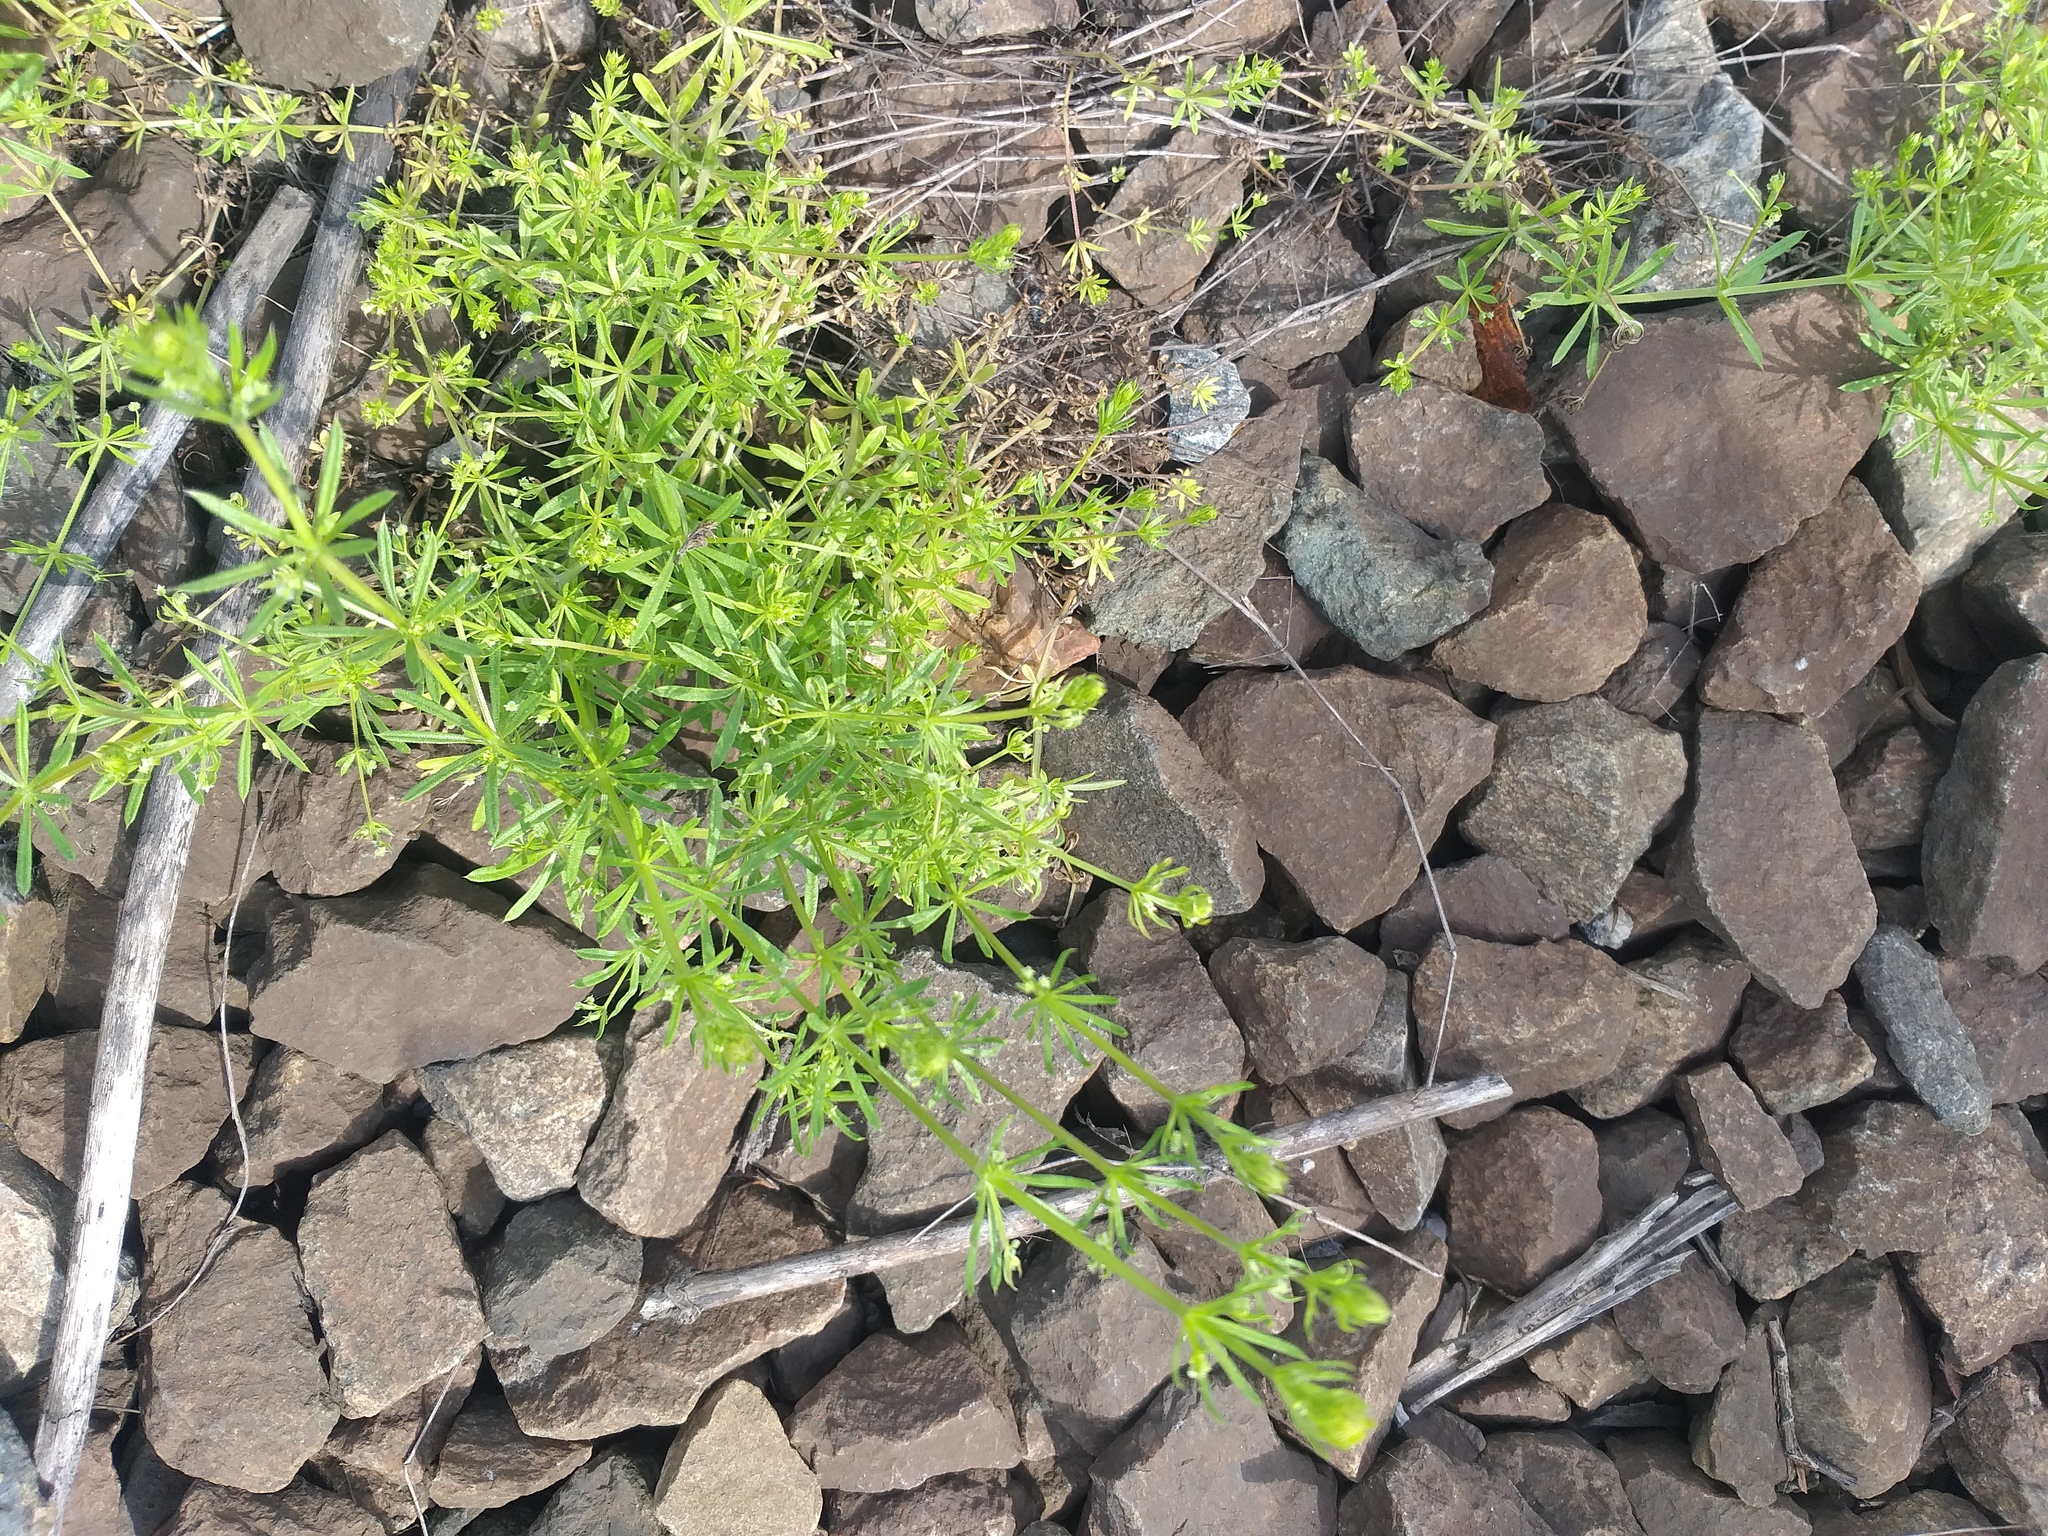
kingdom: Plantae
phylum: Tracheophyta
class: Magnoliopsida
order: Gentianales
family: Rubiaceae
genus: Galium
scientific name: Galium
